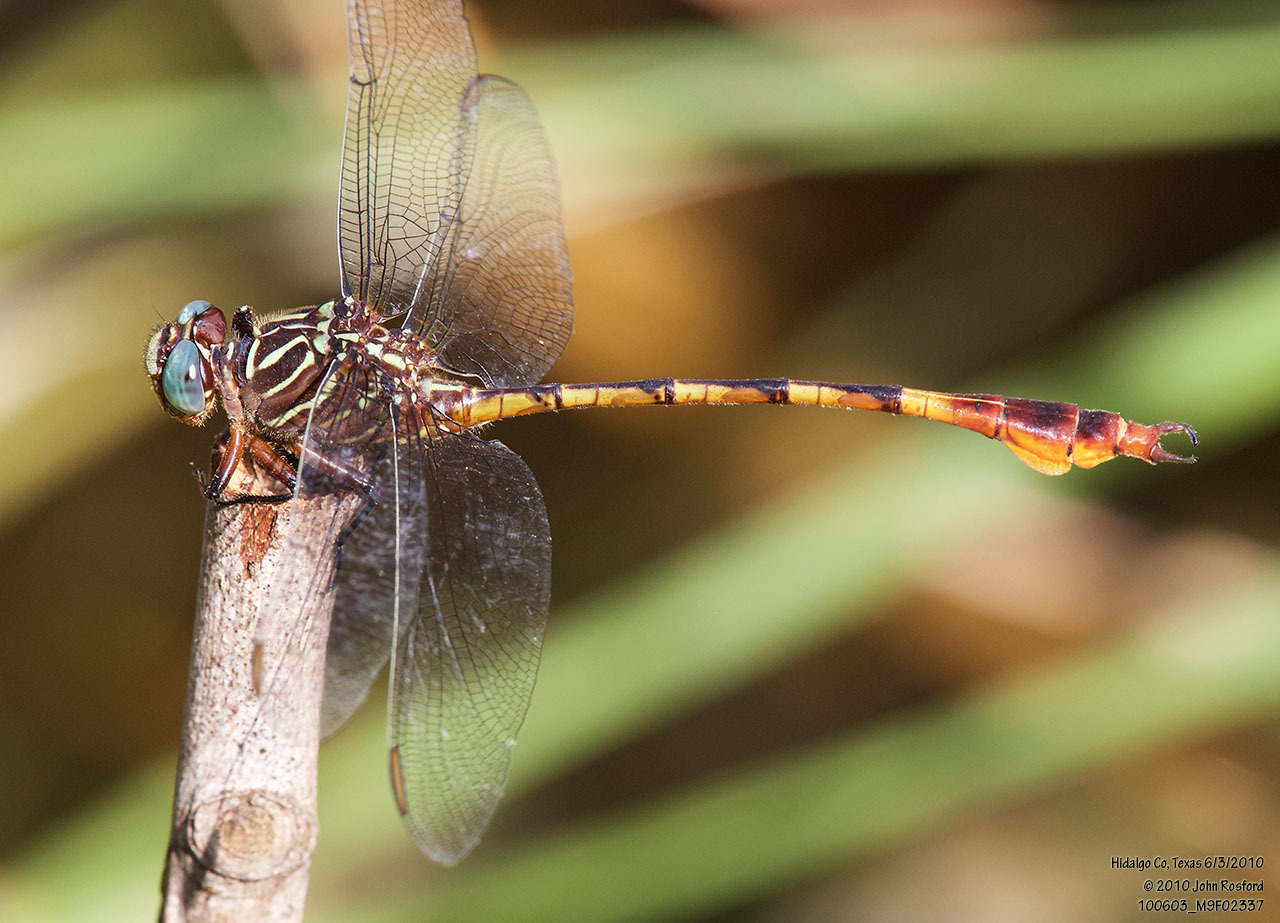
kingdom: Animalia
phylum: Arthropoda
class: Insecta
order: Odonata
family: Gomphidae
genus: Aphylla
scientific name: Aphylla protracta
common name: Narrow-striped forceptail
